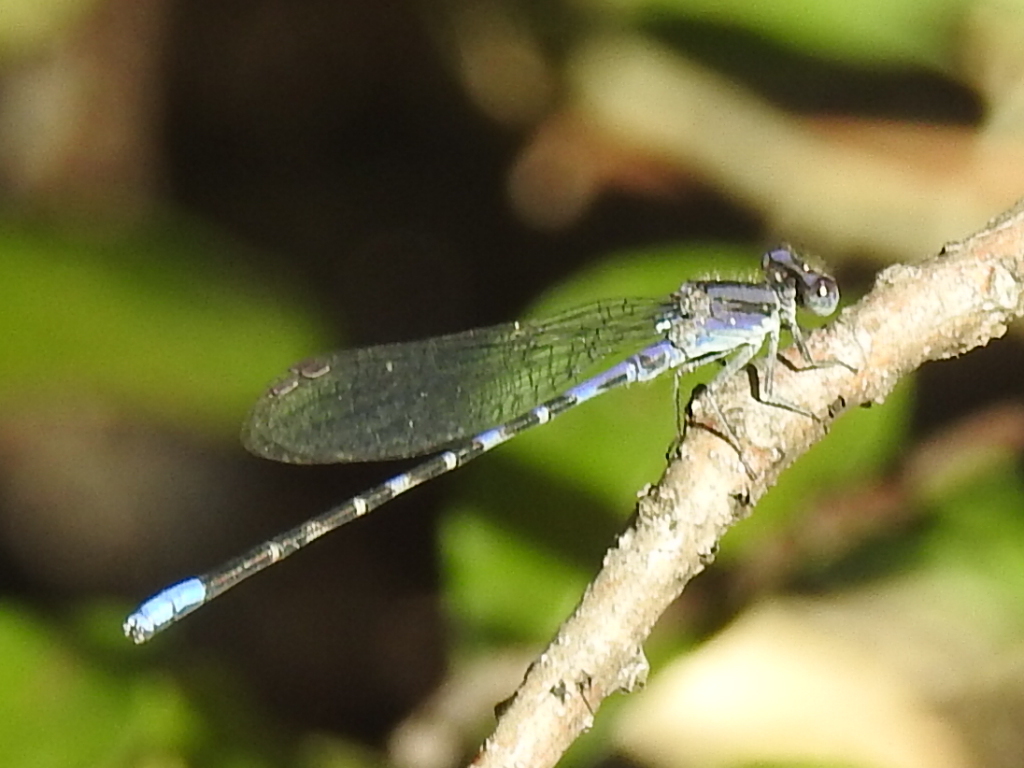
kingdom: Animalia
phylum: Arthropoda
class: Insecta
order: Odonata
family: Coenagrionidae
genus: Argia
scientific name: Argia immunda
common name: Kiowa dancer
